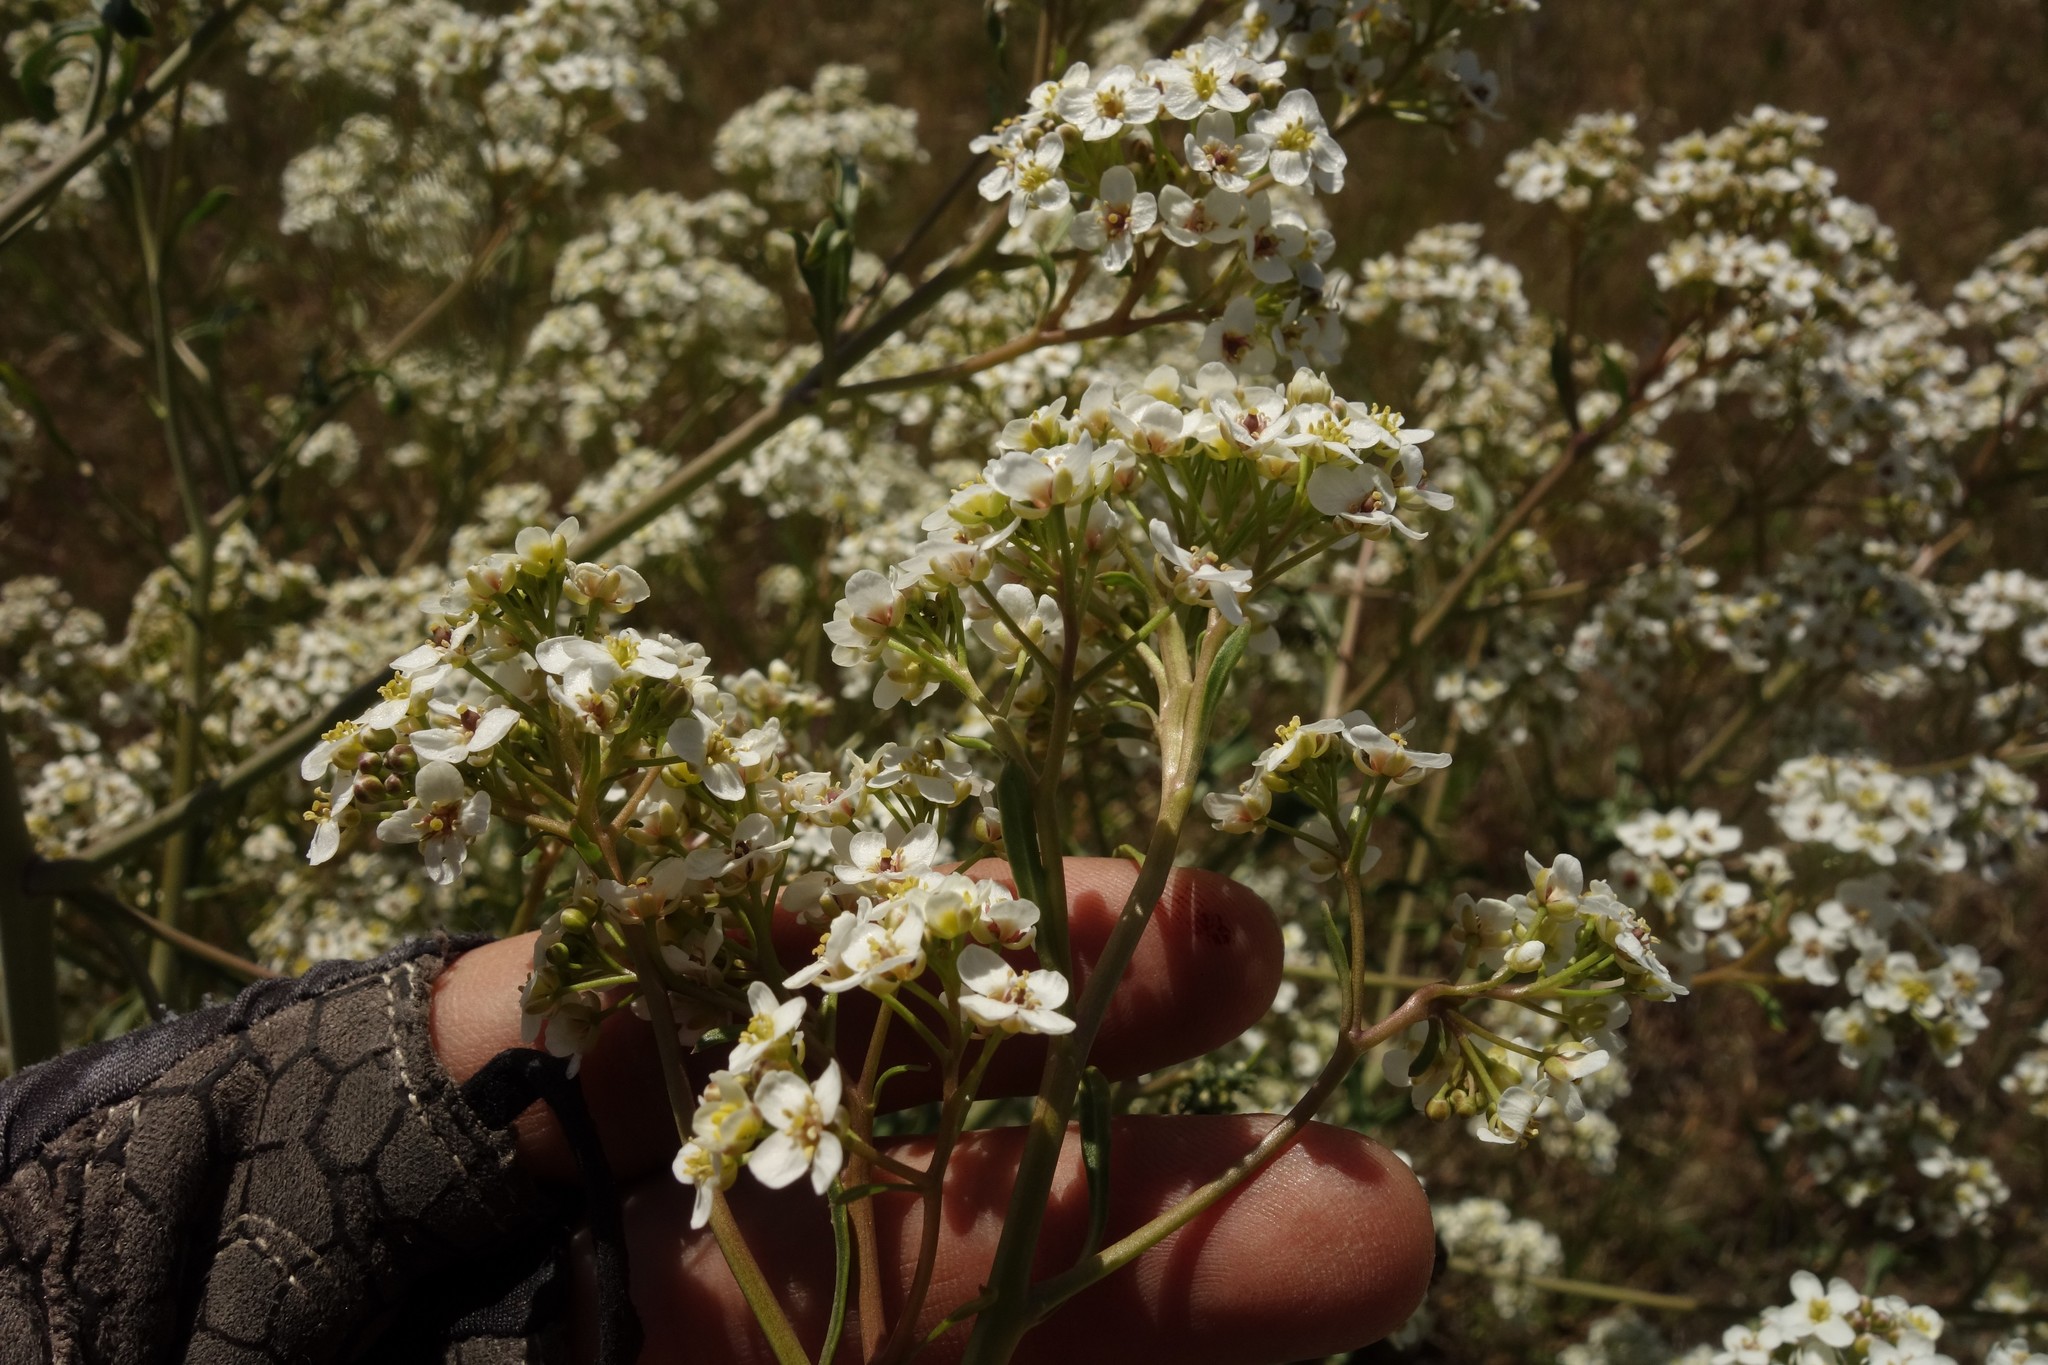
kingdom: Plantae
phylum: Tracheophyta
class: Magnoliopsida
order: Brassicales
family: Brassicaceae
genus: Crambe
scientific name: Crambe tataria
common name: Tartarian breadplant
